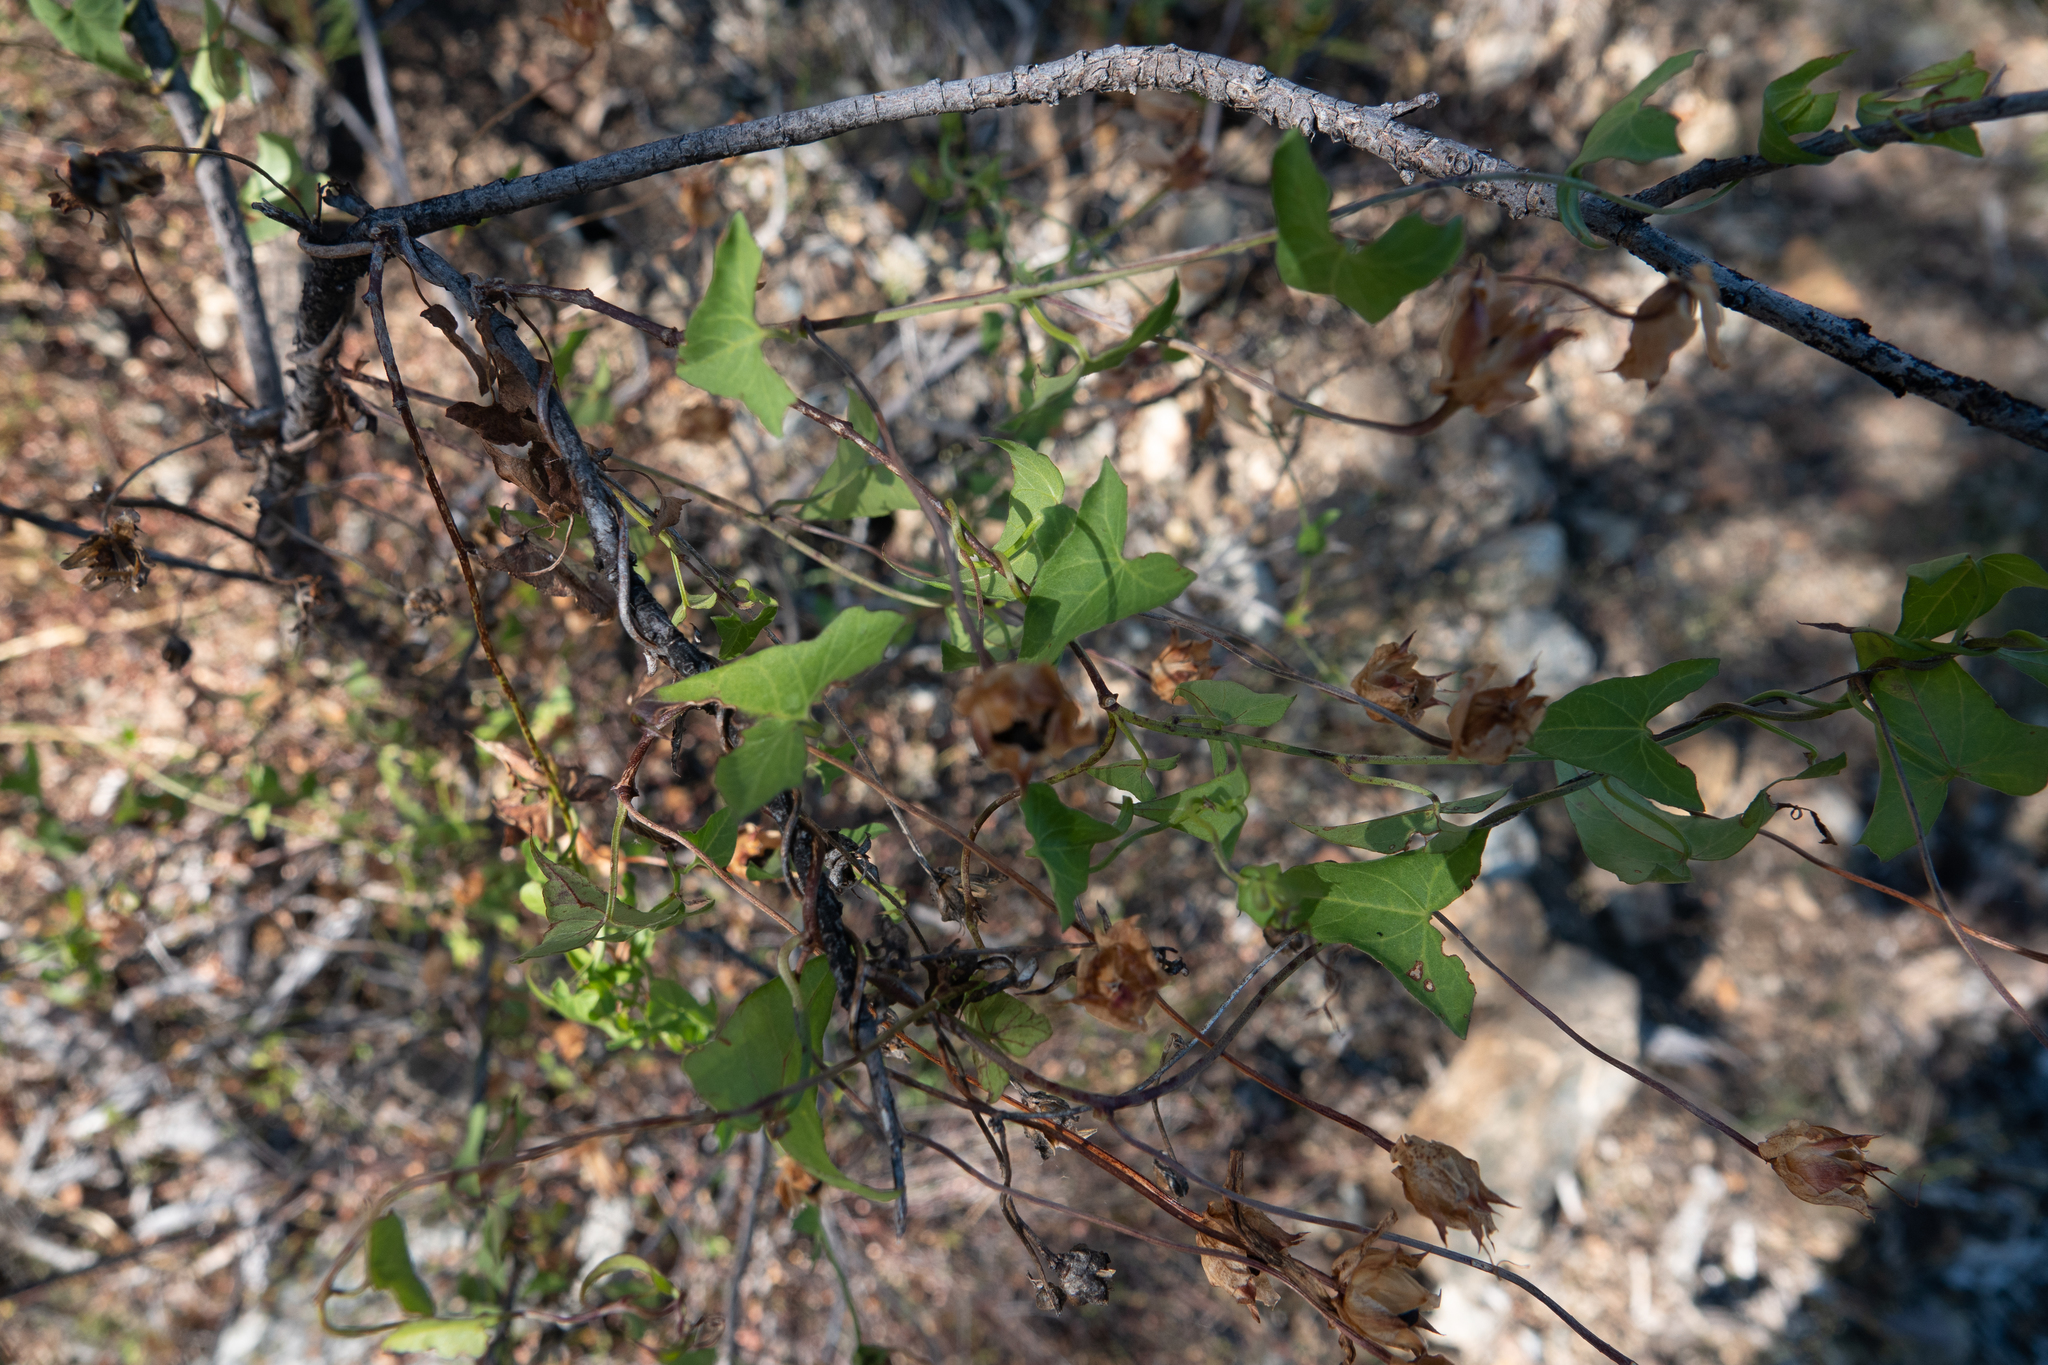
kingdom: Plantae
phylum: Tracheophyta
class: Magnoliopsida
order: Solanales
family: Convolvulaceae
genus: Calystegia
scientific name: Calystegia macrostegia
